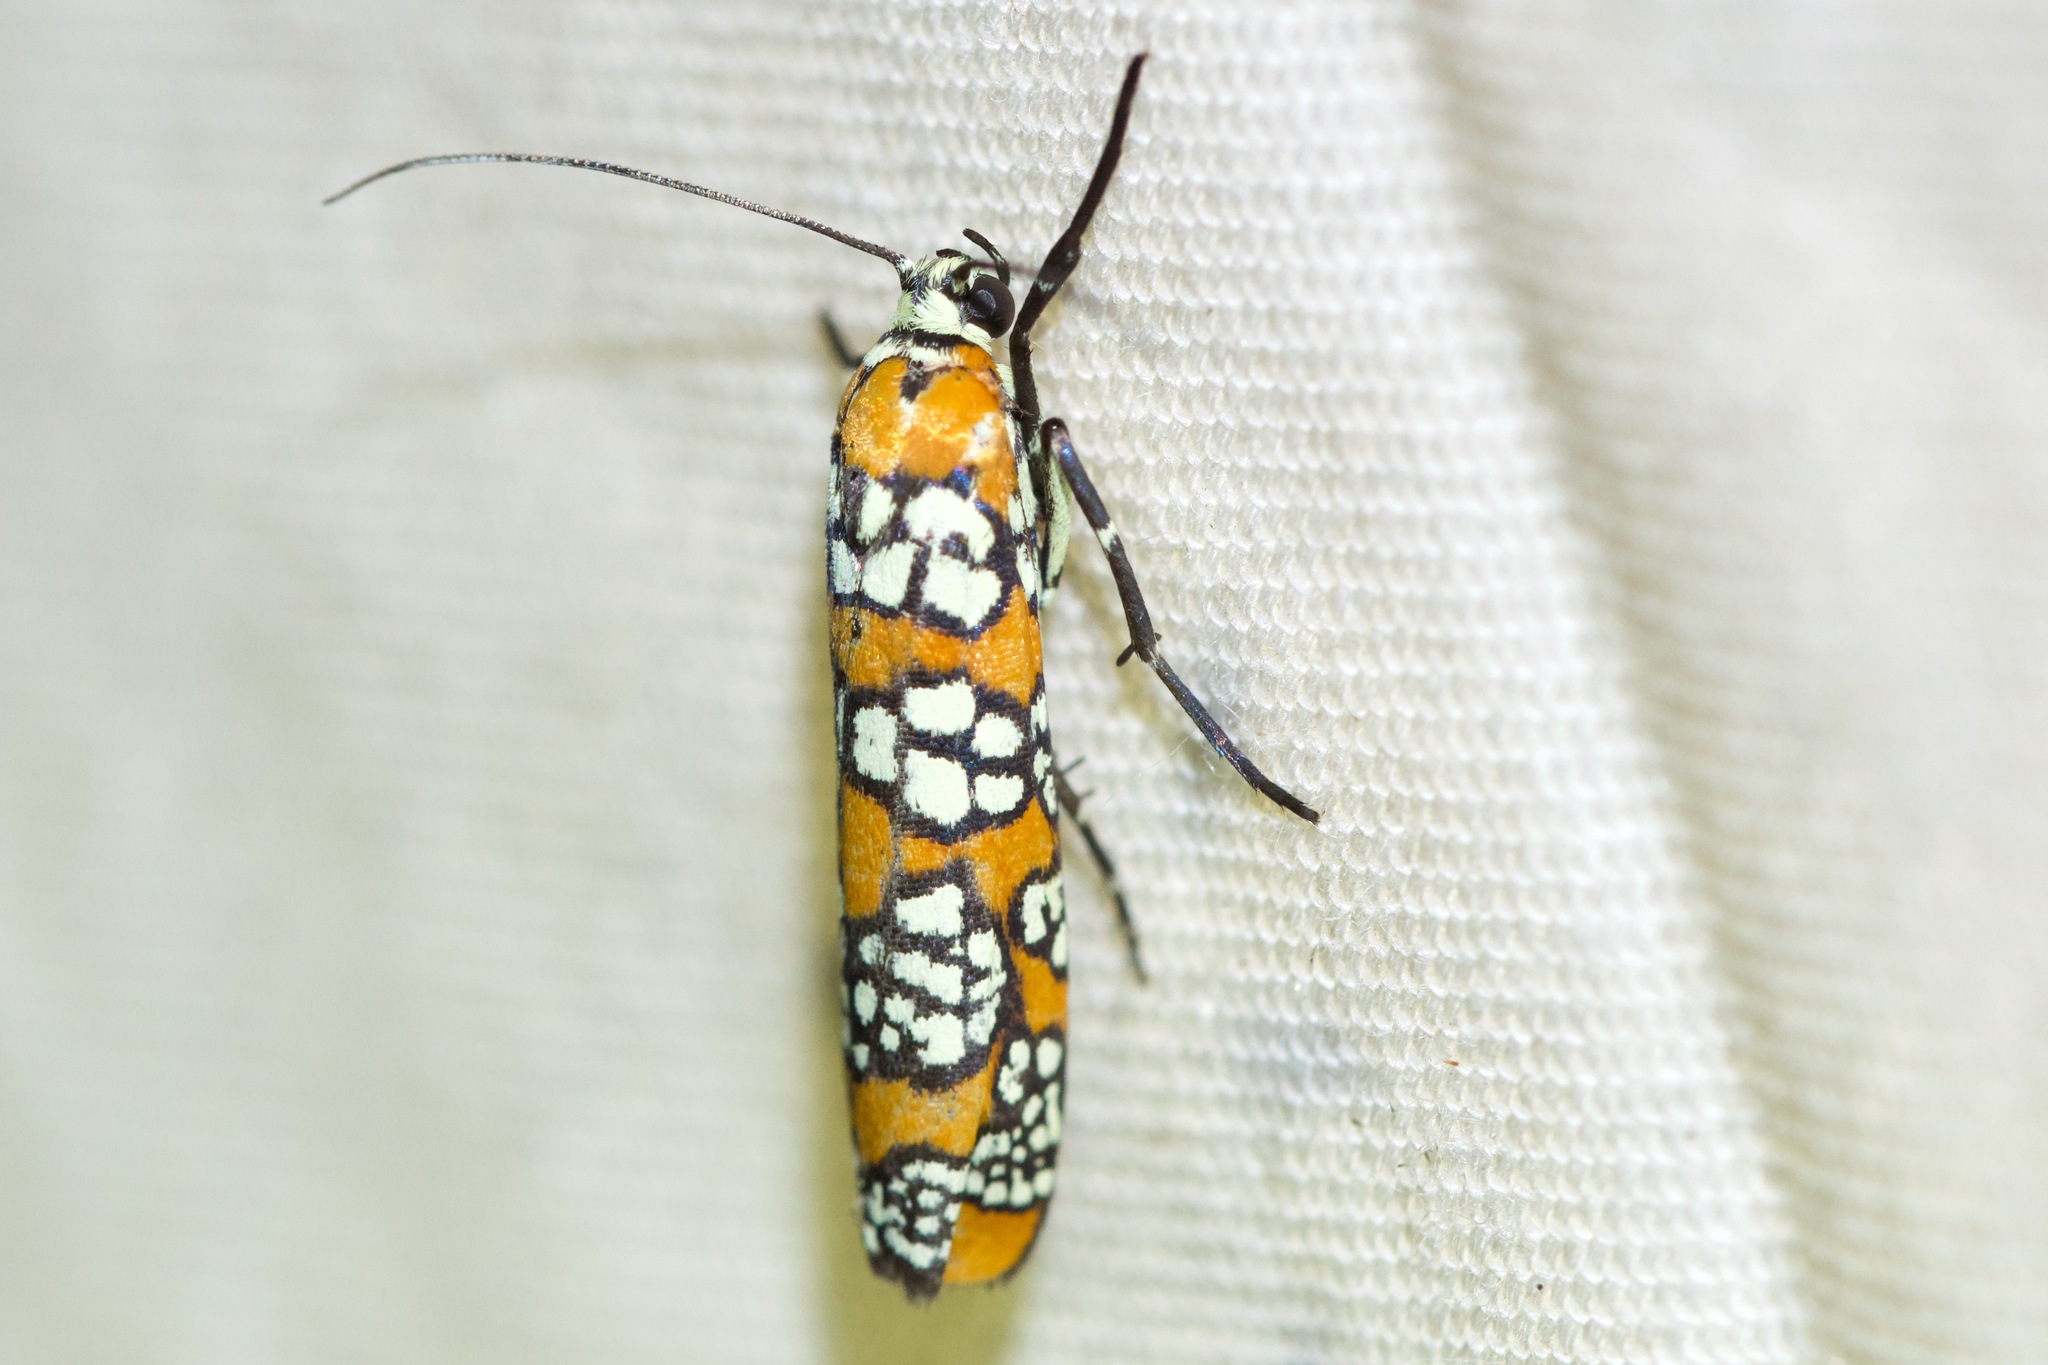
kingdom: Animalia
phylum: Arthropoda
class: Insecta
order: Lepidoptera
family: Attevidae
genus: Atteva
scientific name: Atteva punctella
